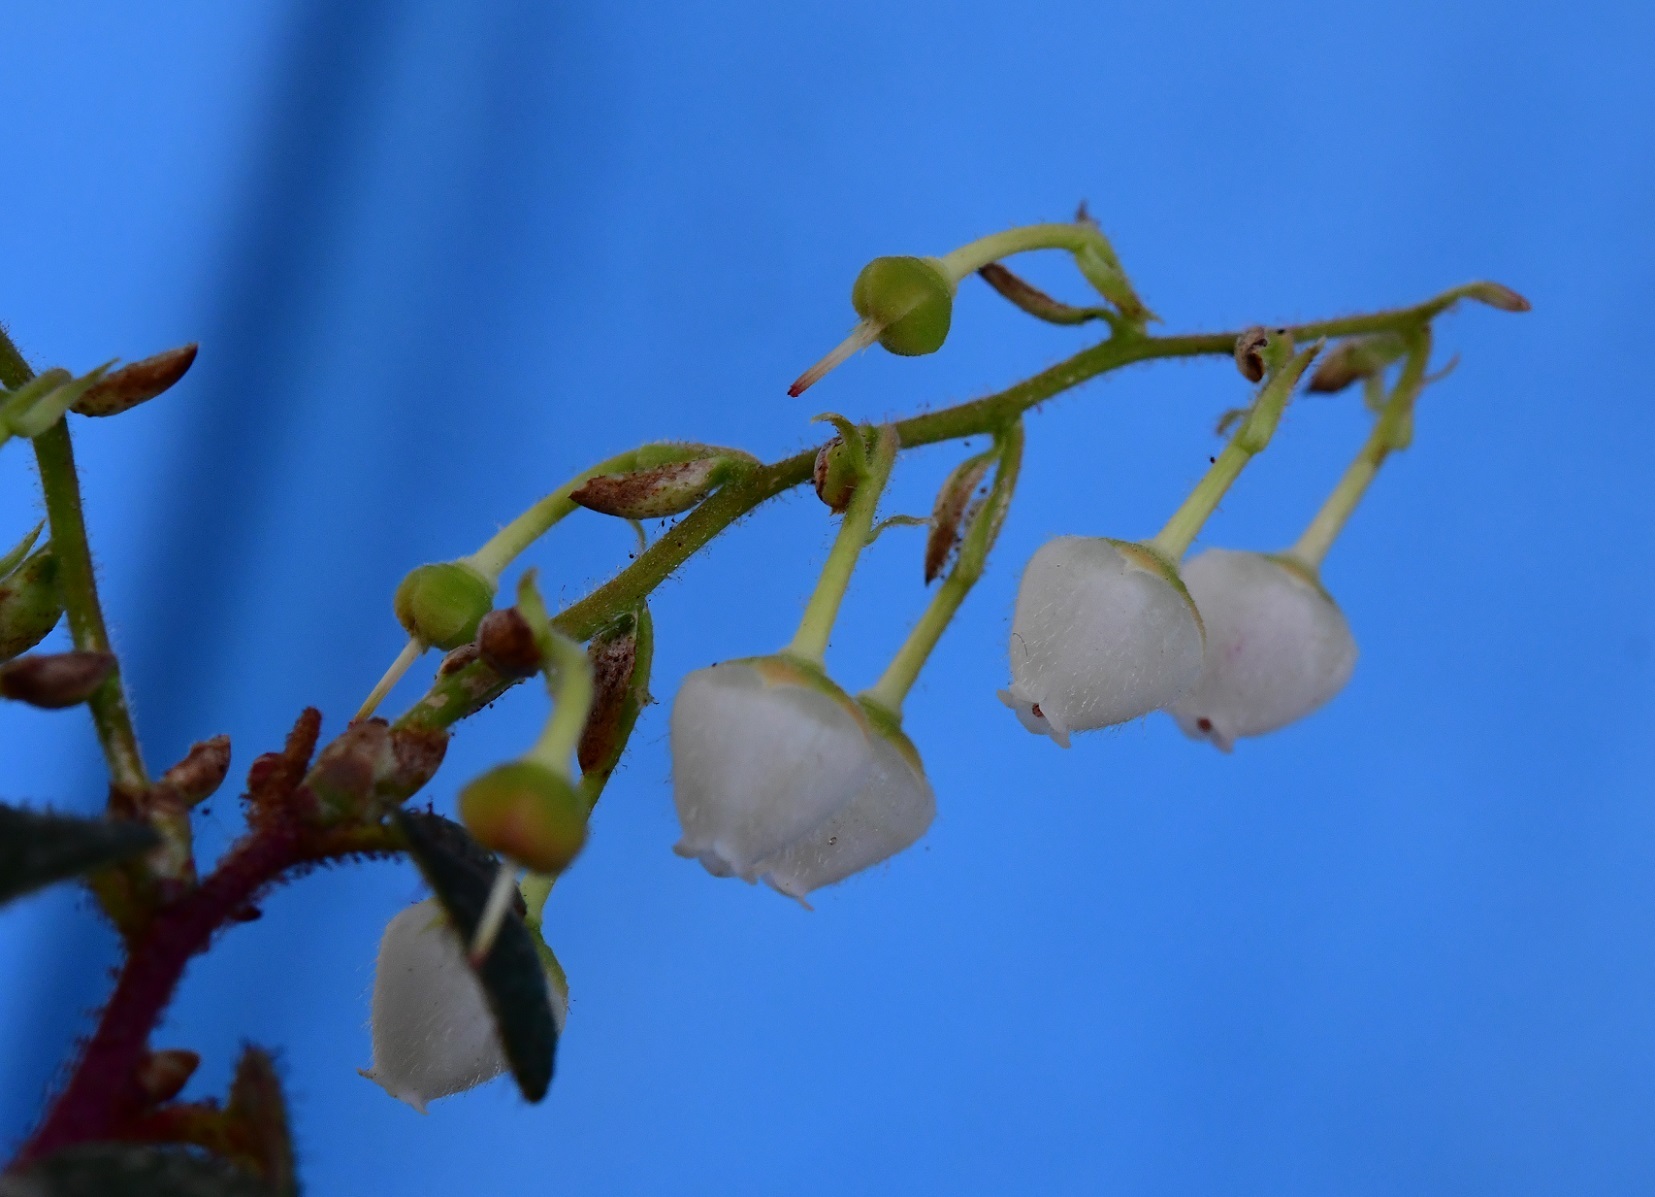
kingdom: Plantae
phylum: Tracheophyta
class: Magnoliopsida
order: Ericales
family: Ericaceae
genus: Gaultheria
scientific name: Gaultheria erecta
